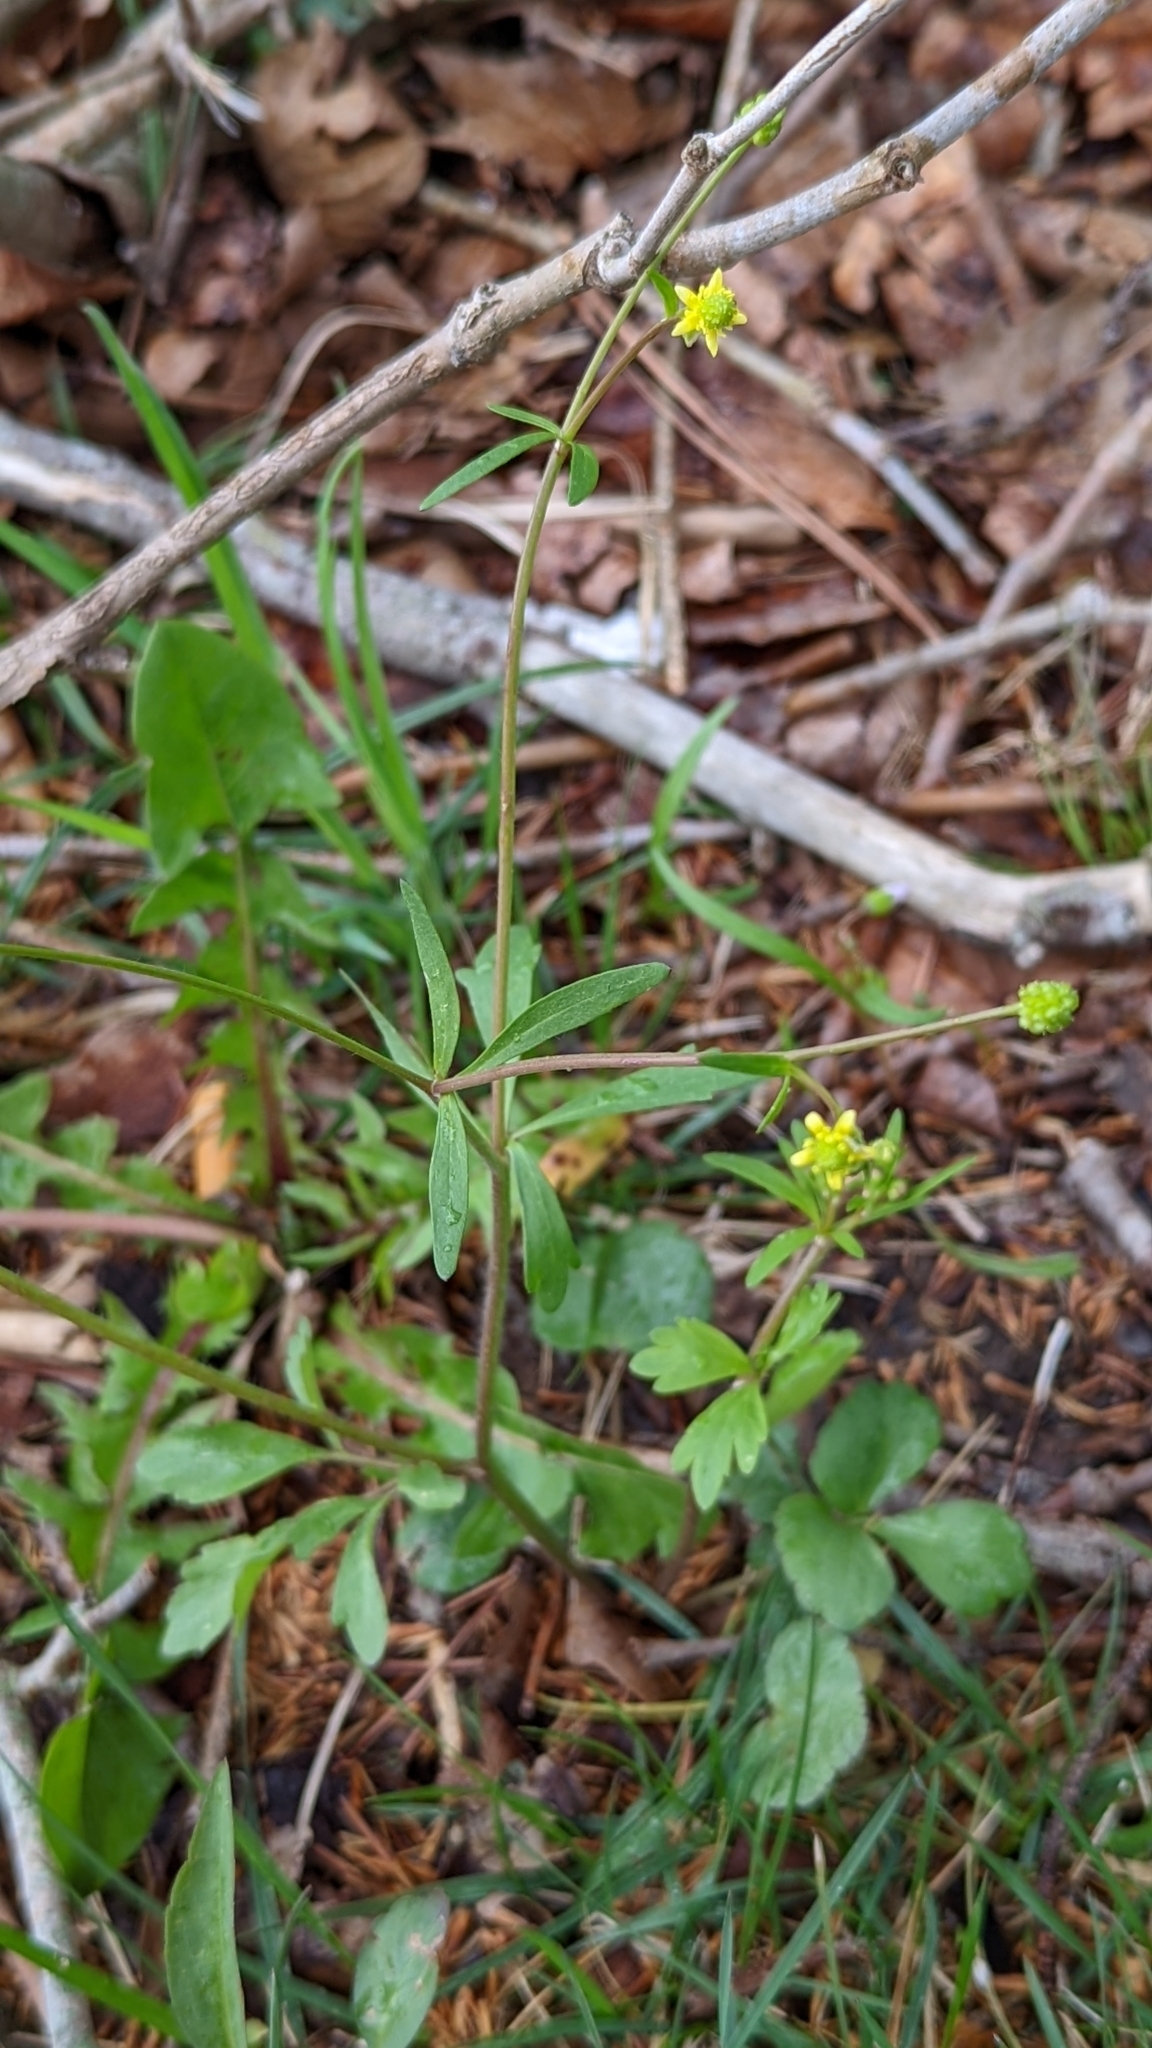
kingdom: Plantae
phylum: Tracheophyta
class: Magnoliopsida
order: Ranunculales
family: Ranunculaceae
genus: Ranunculus
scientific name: Ranunculus abortivus
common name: Early wood buttercup
